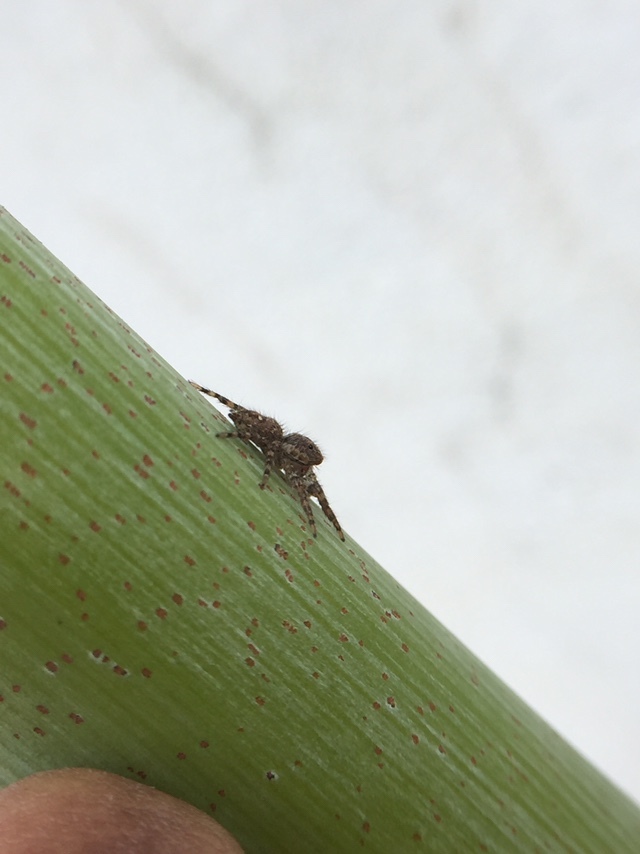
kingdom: Animalia
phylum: Arthropoda
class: Arachnida
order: Araneae
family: Salticidae
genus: Plexippus
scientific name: Plexippus paykulli
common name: Pantropical jumper
